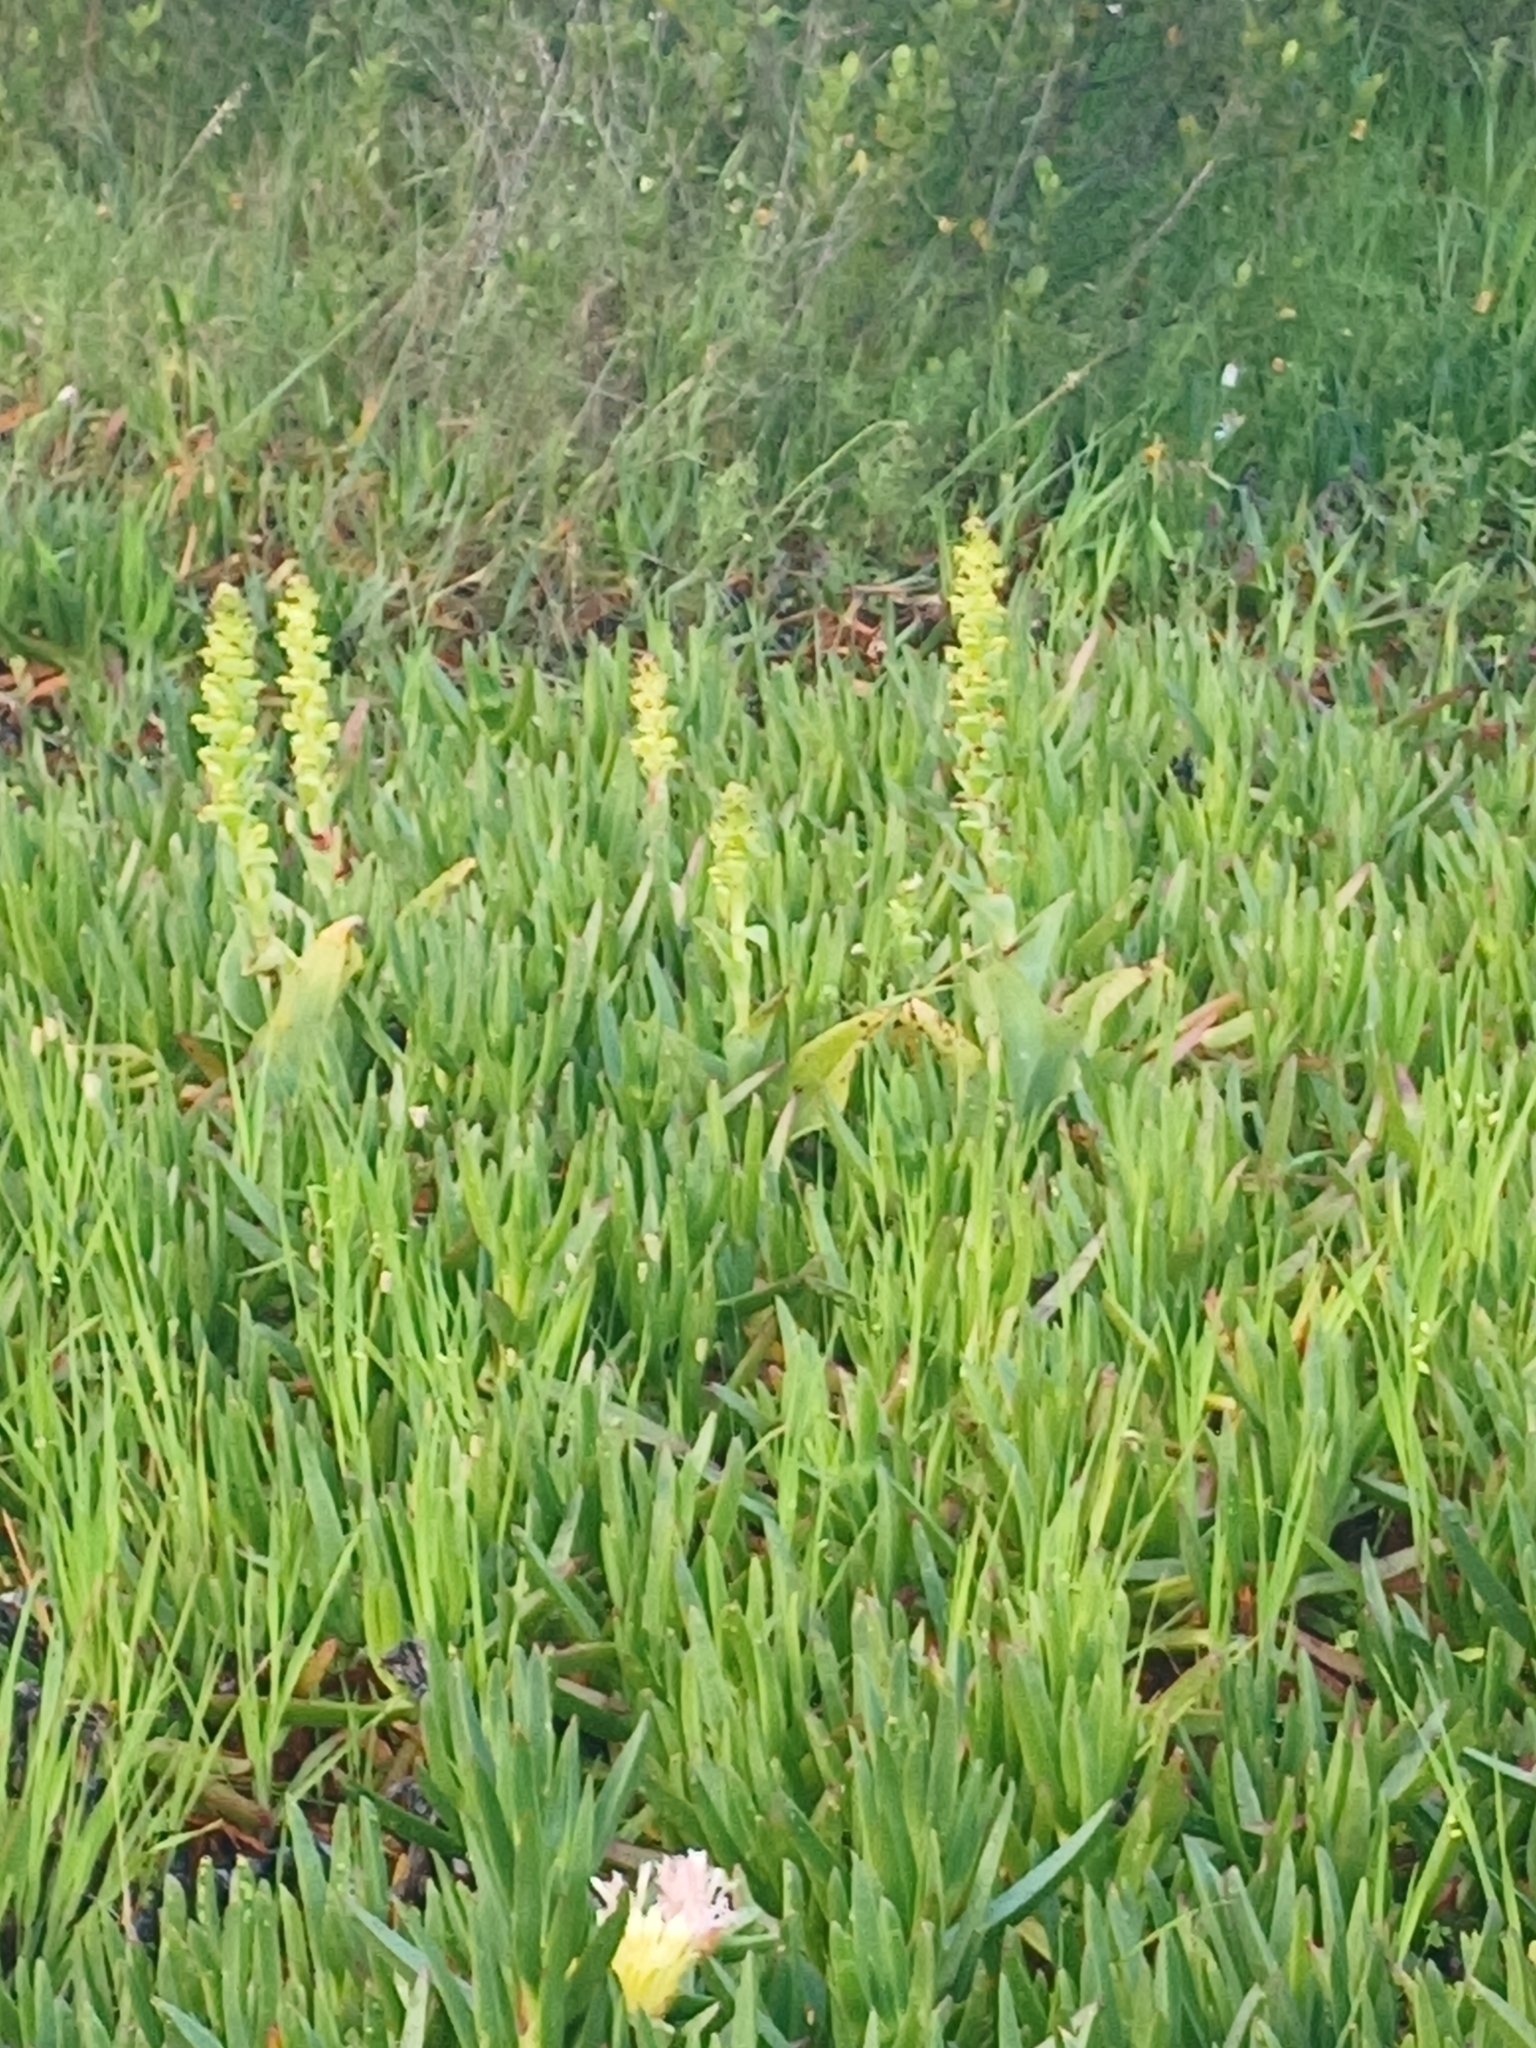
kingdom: Plantae
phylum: Tracheophyta
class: Liliopsida
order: Asparagales
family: Orchidaceae
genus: Satyrium
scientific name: Satyrium odorum
